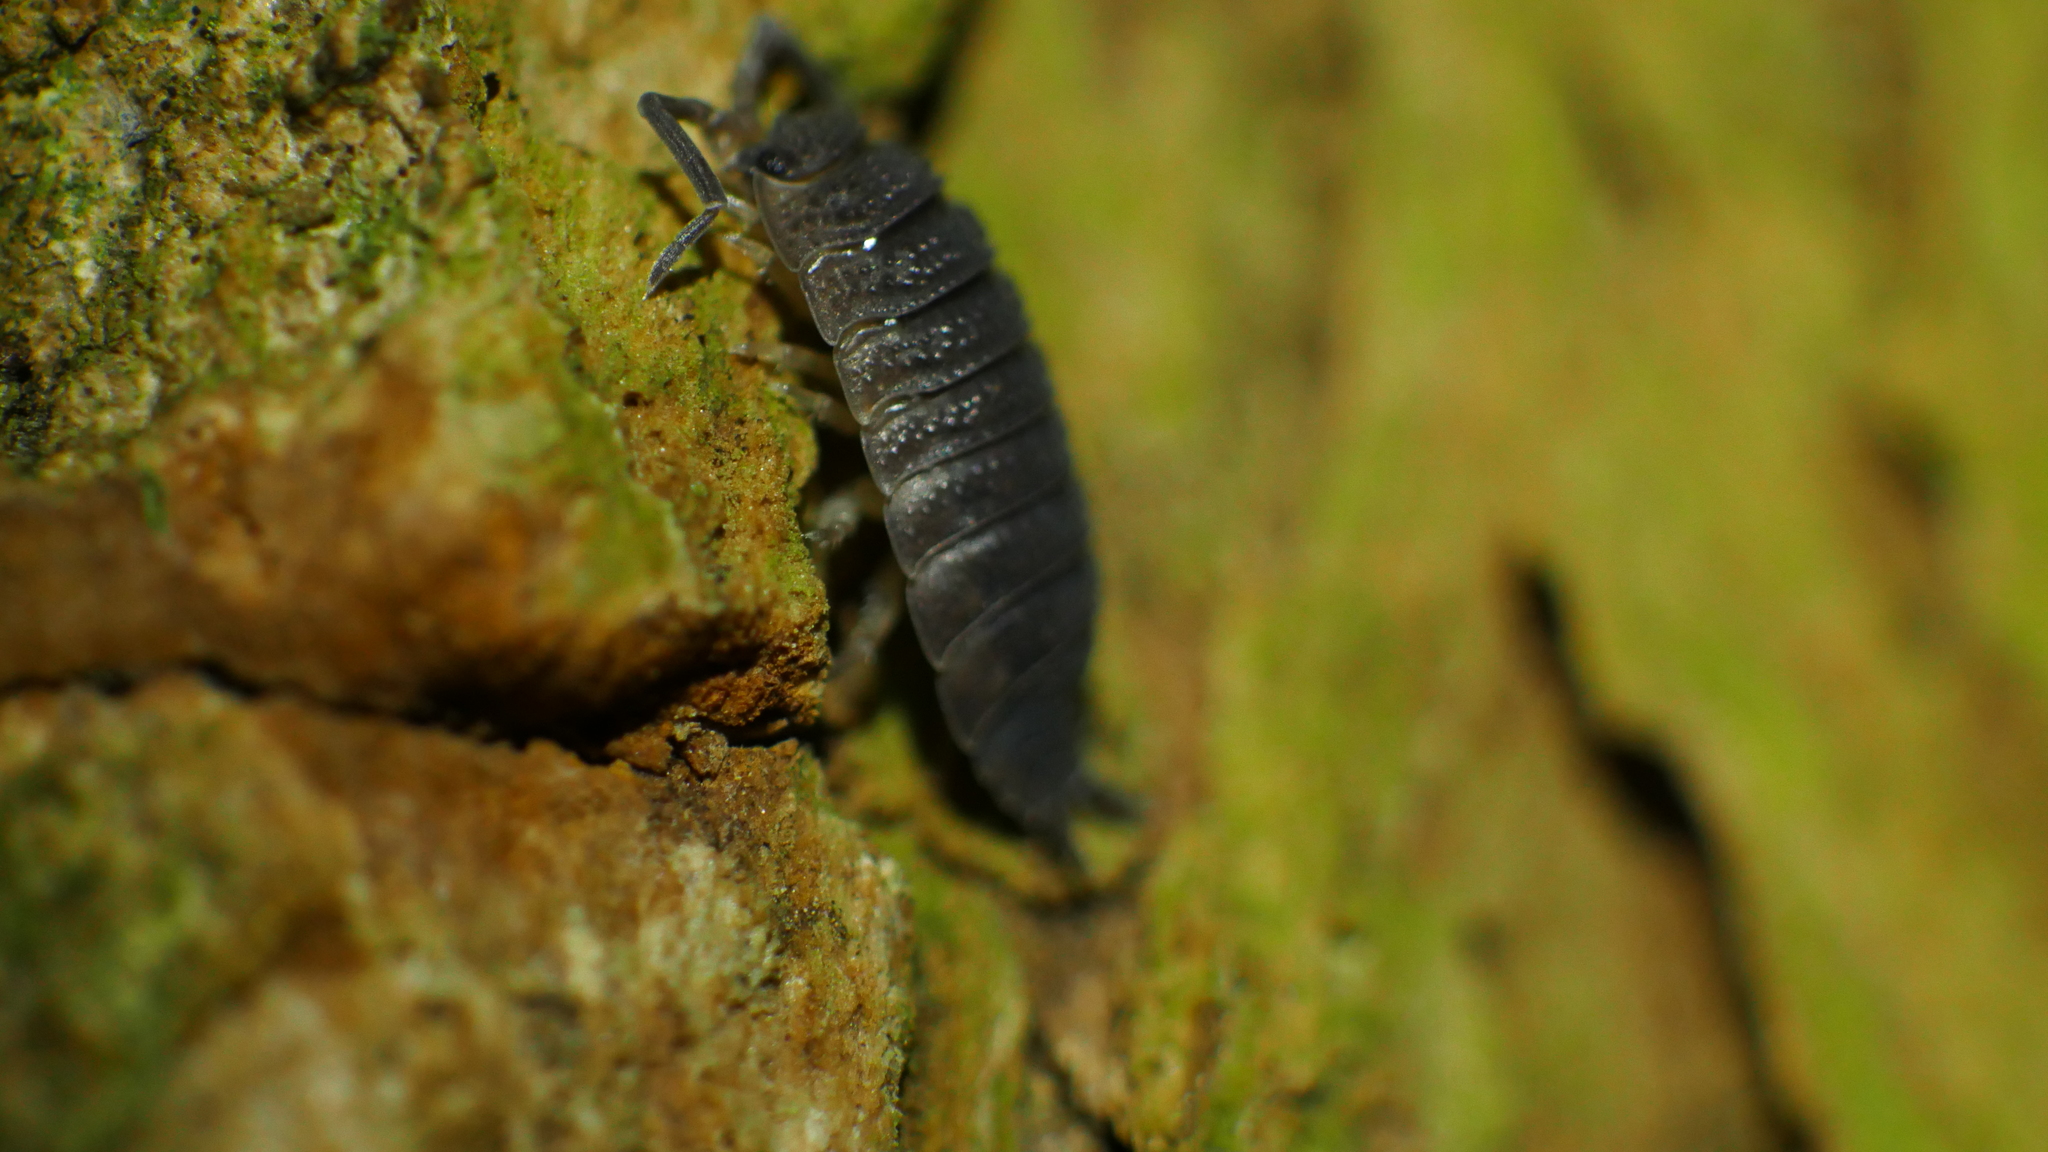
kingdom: Animalia
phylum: Arthropoda
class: Malacostraca
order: Isopoda
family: Porcellionidae
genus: Porcellio
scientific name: Porcellio scaber
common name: Common rough woodlouse
